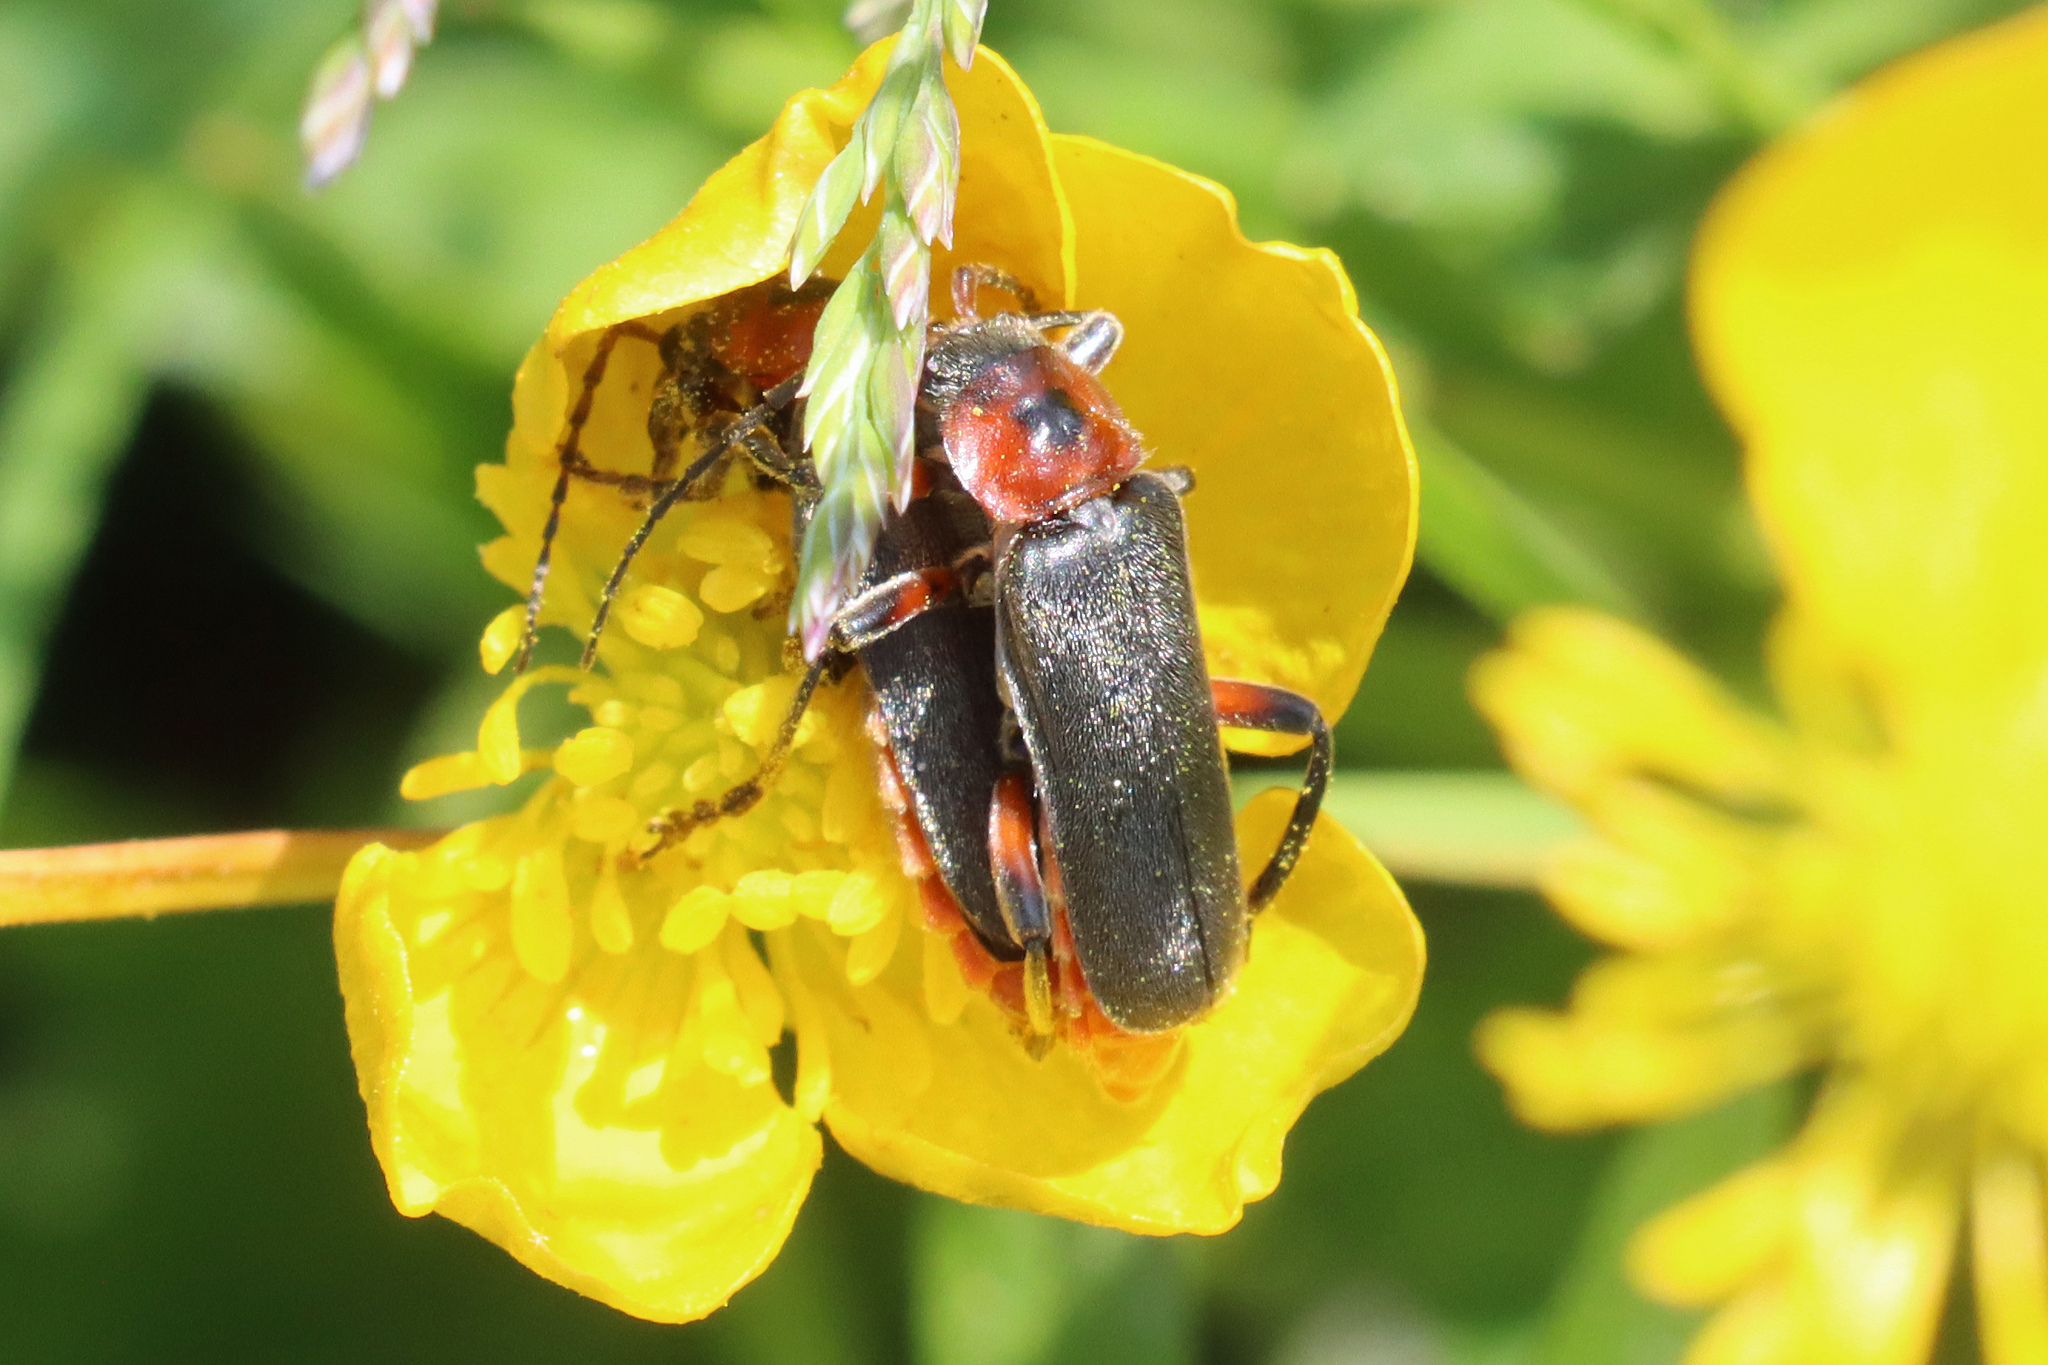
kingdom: Animalia
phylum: Arthropoda
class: Insecta
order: Coleoptera
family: Cantharidae
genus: Cantharis
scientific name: Cantharis rustica
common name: Soldier beetle
